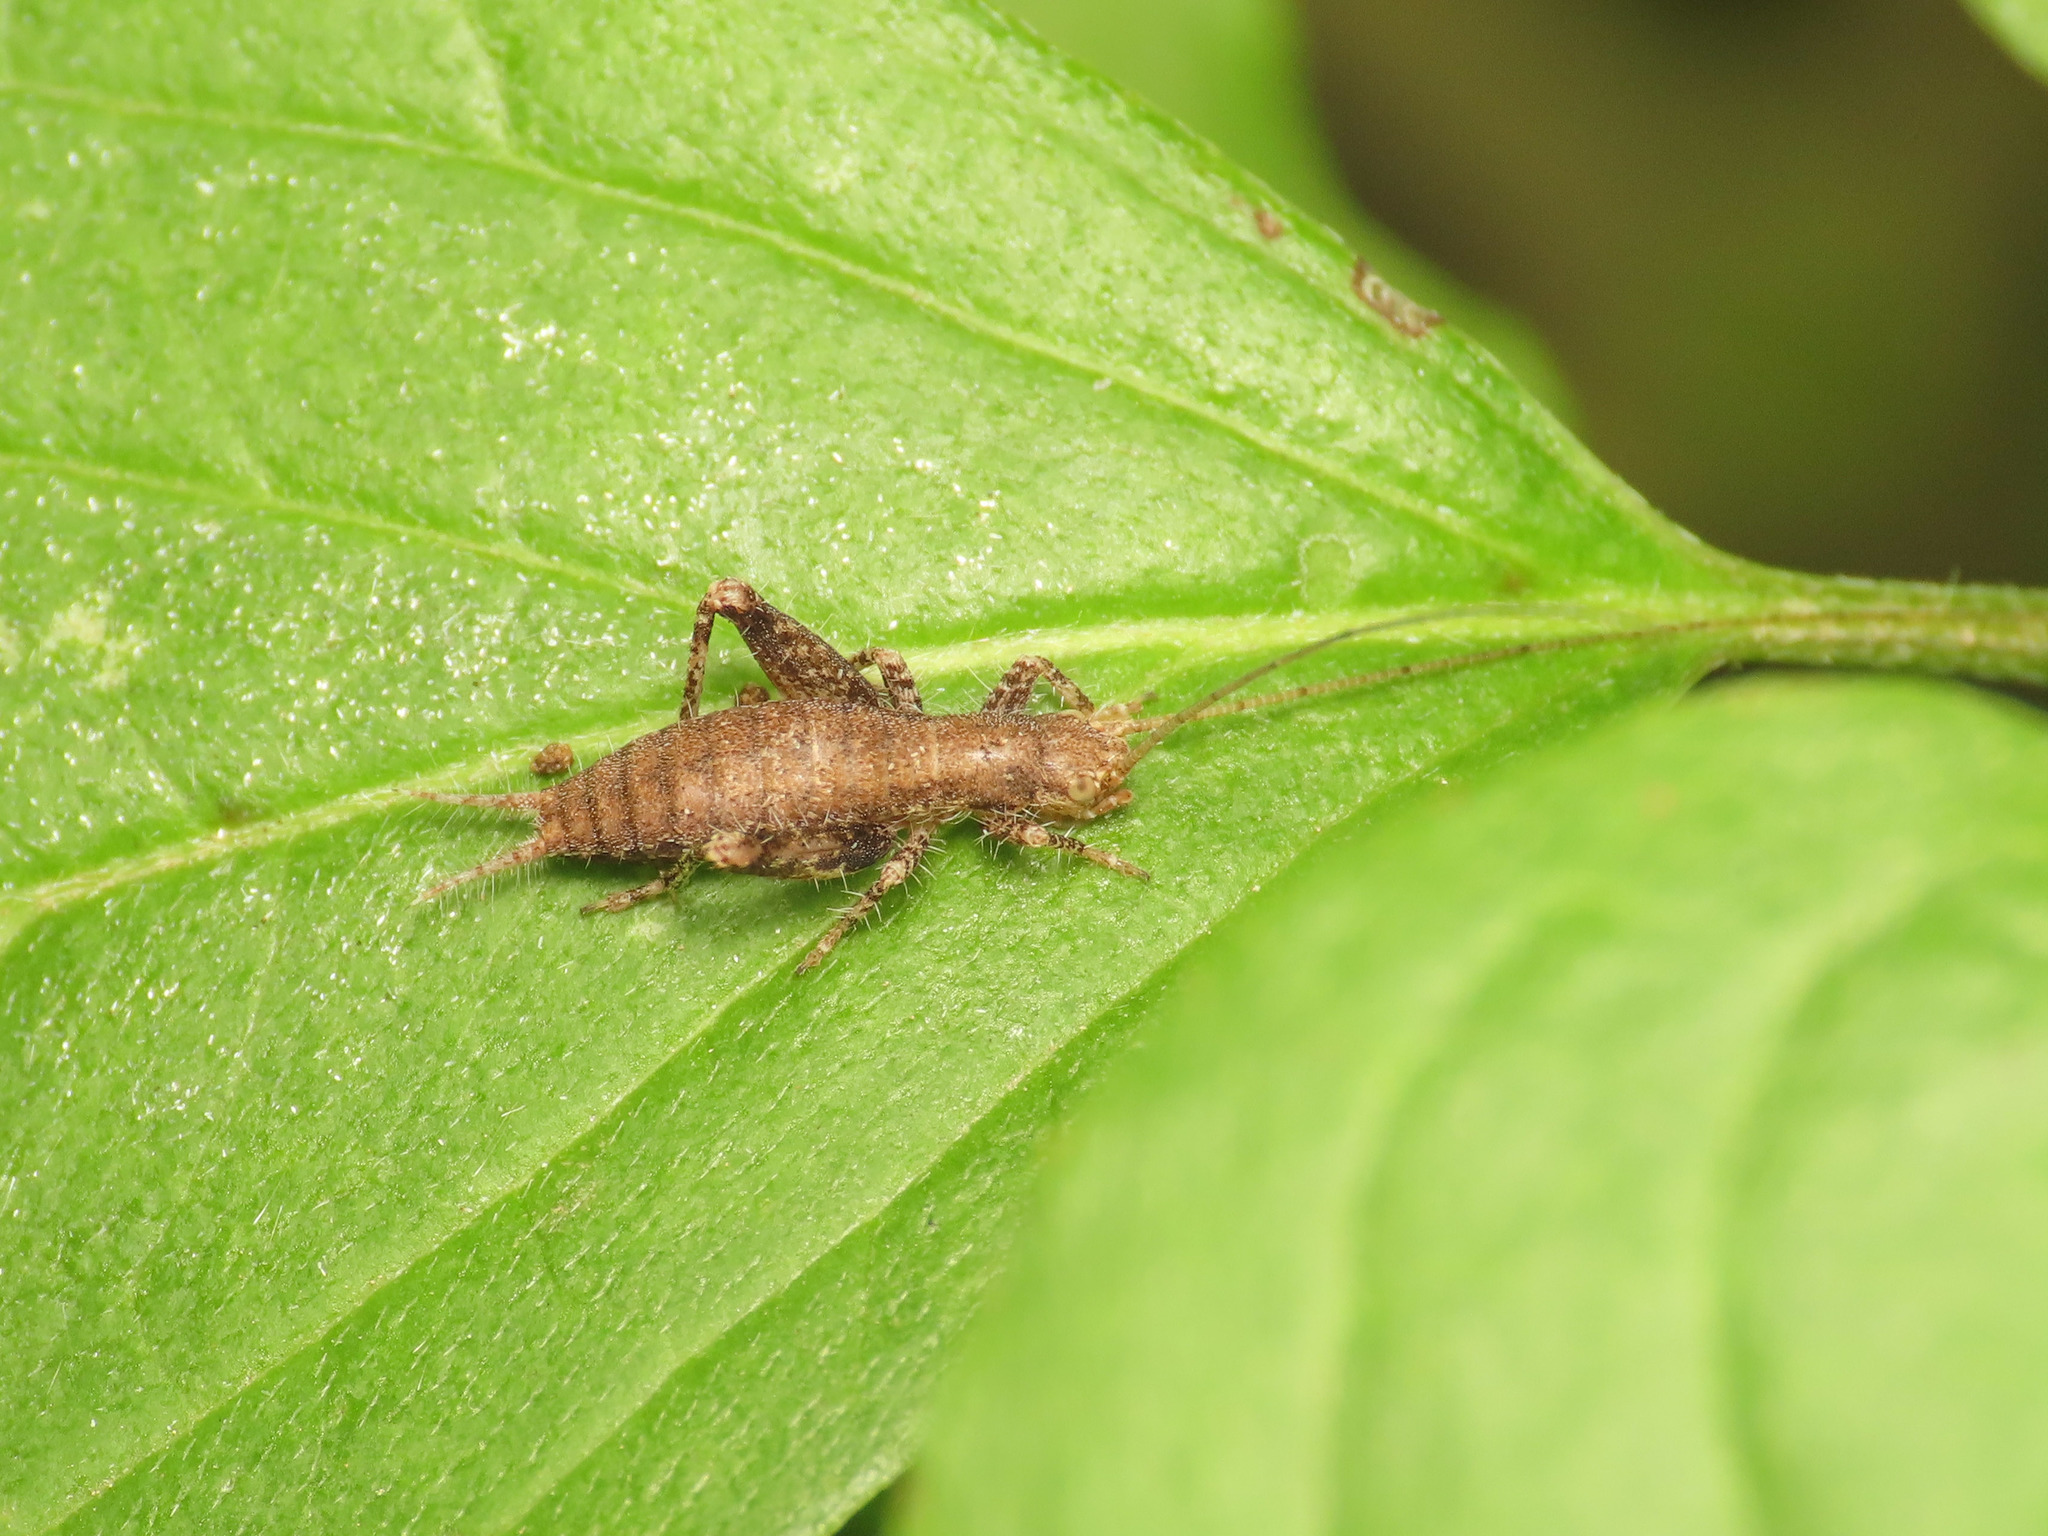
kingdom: Animalia
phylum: Arthropoda
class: Insecta
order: Orthoptera
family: Mogoplistidae
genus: Arachnocephalus
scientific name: Arachnocephalus vestitus
